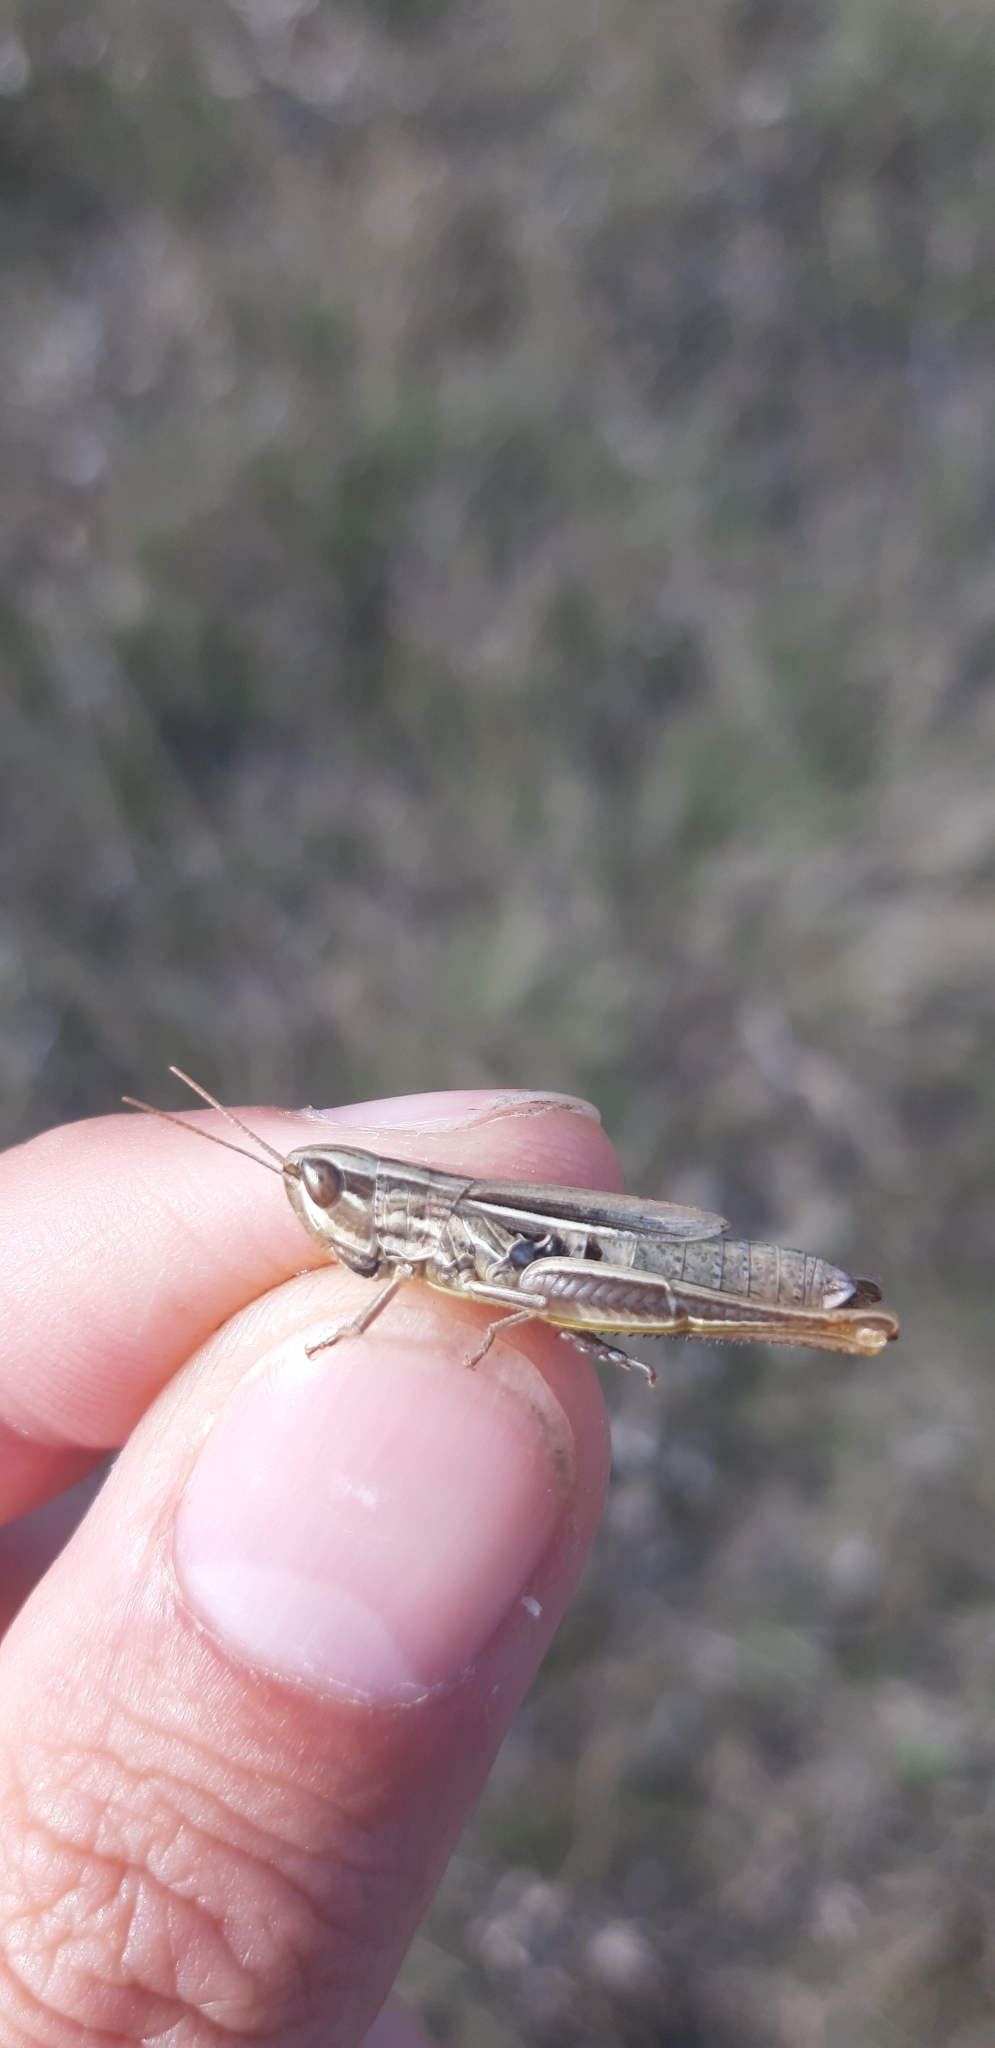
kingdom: Animalia
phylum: Arthropoda
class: Insecta
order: Orthoptera
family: Acrididae
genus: Euchorthippus
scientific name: Euchorthippus declivus
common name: Common straw grasshopper
